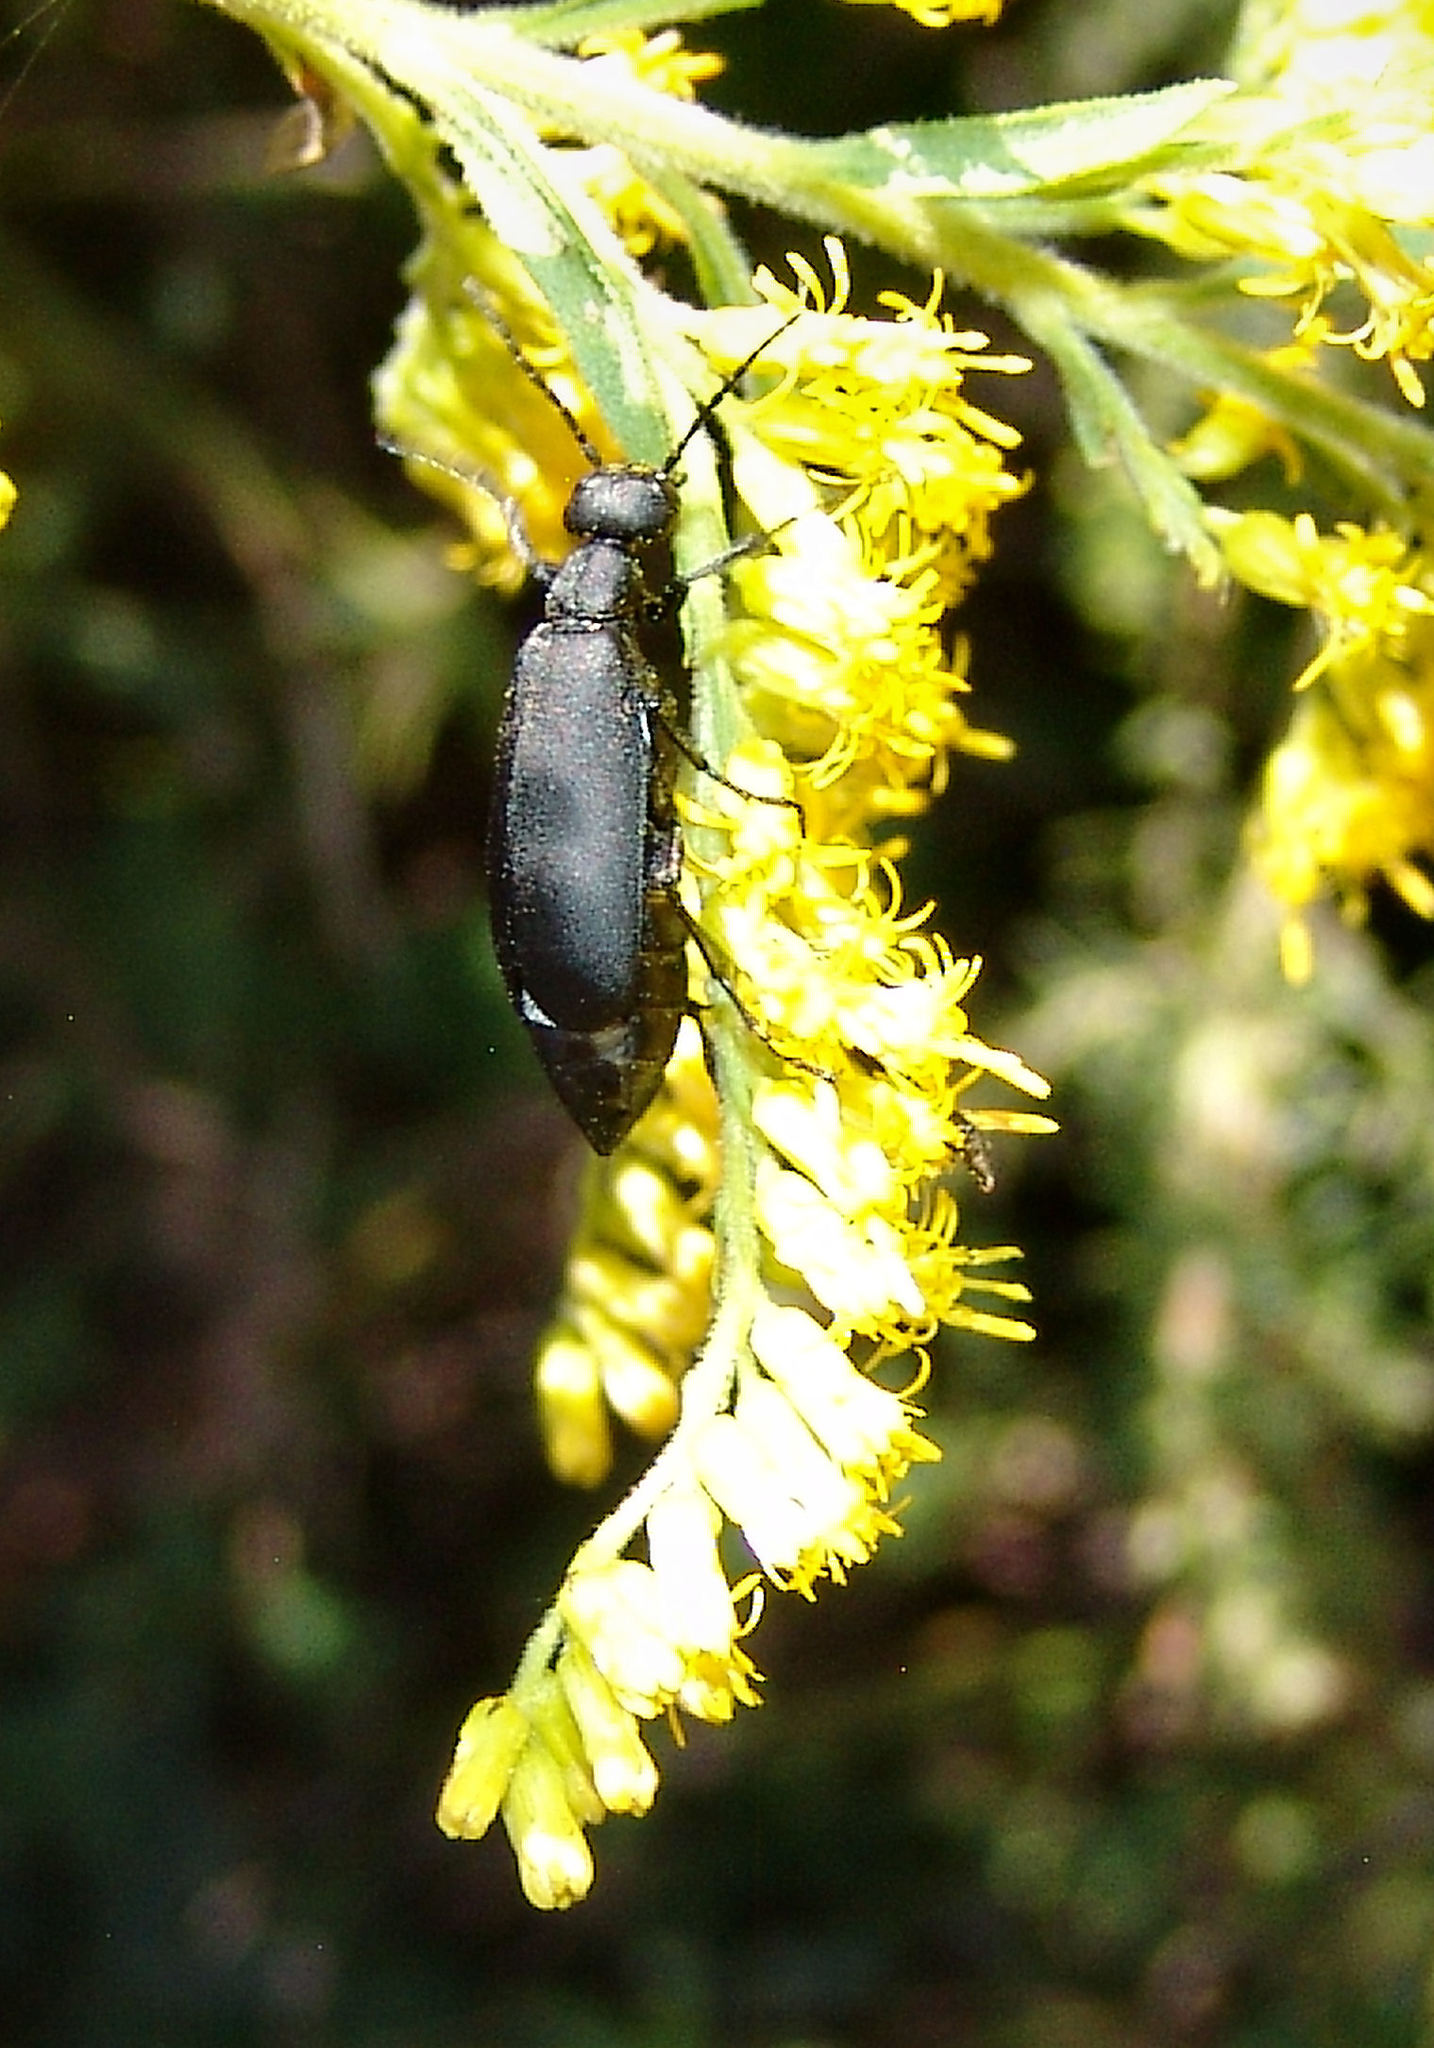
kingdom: Animalia
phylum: Arthropoda
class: Insecta
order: Coleoptera
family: Meloidae
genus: Epicauta
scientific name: Epicauta pensylvanica
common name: Black blister beetle
